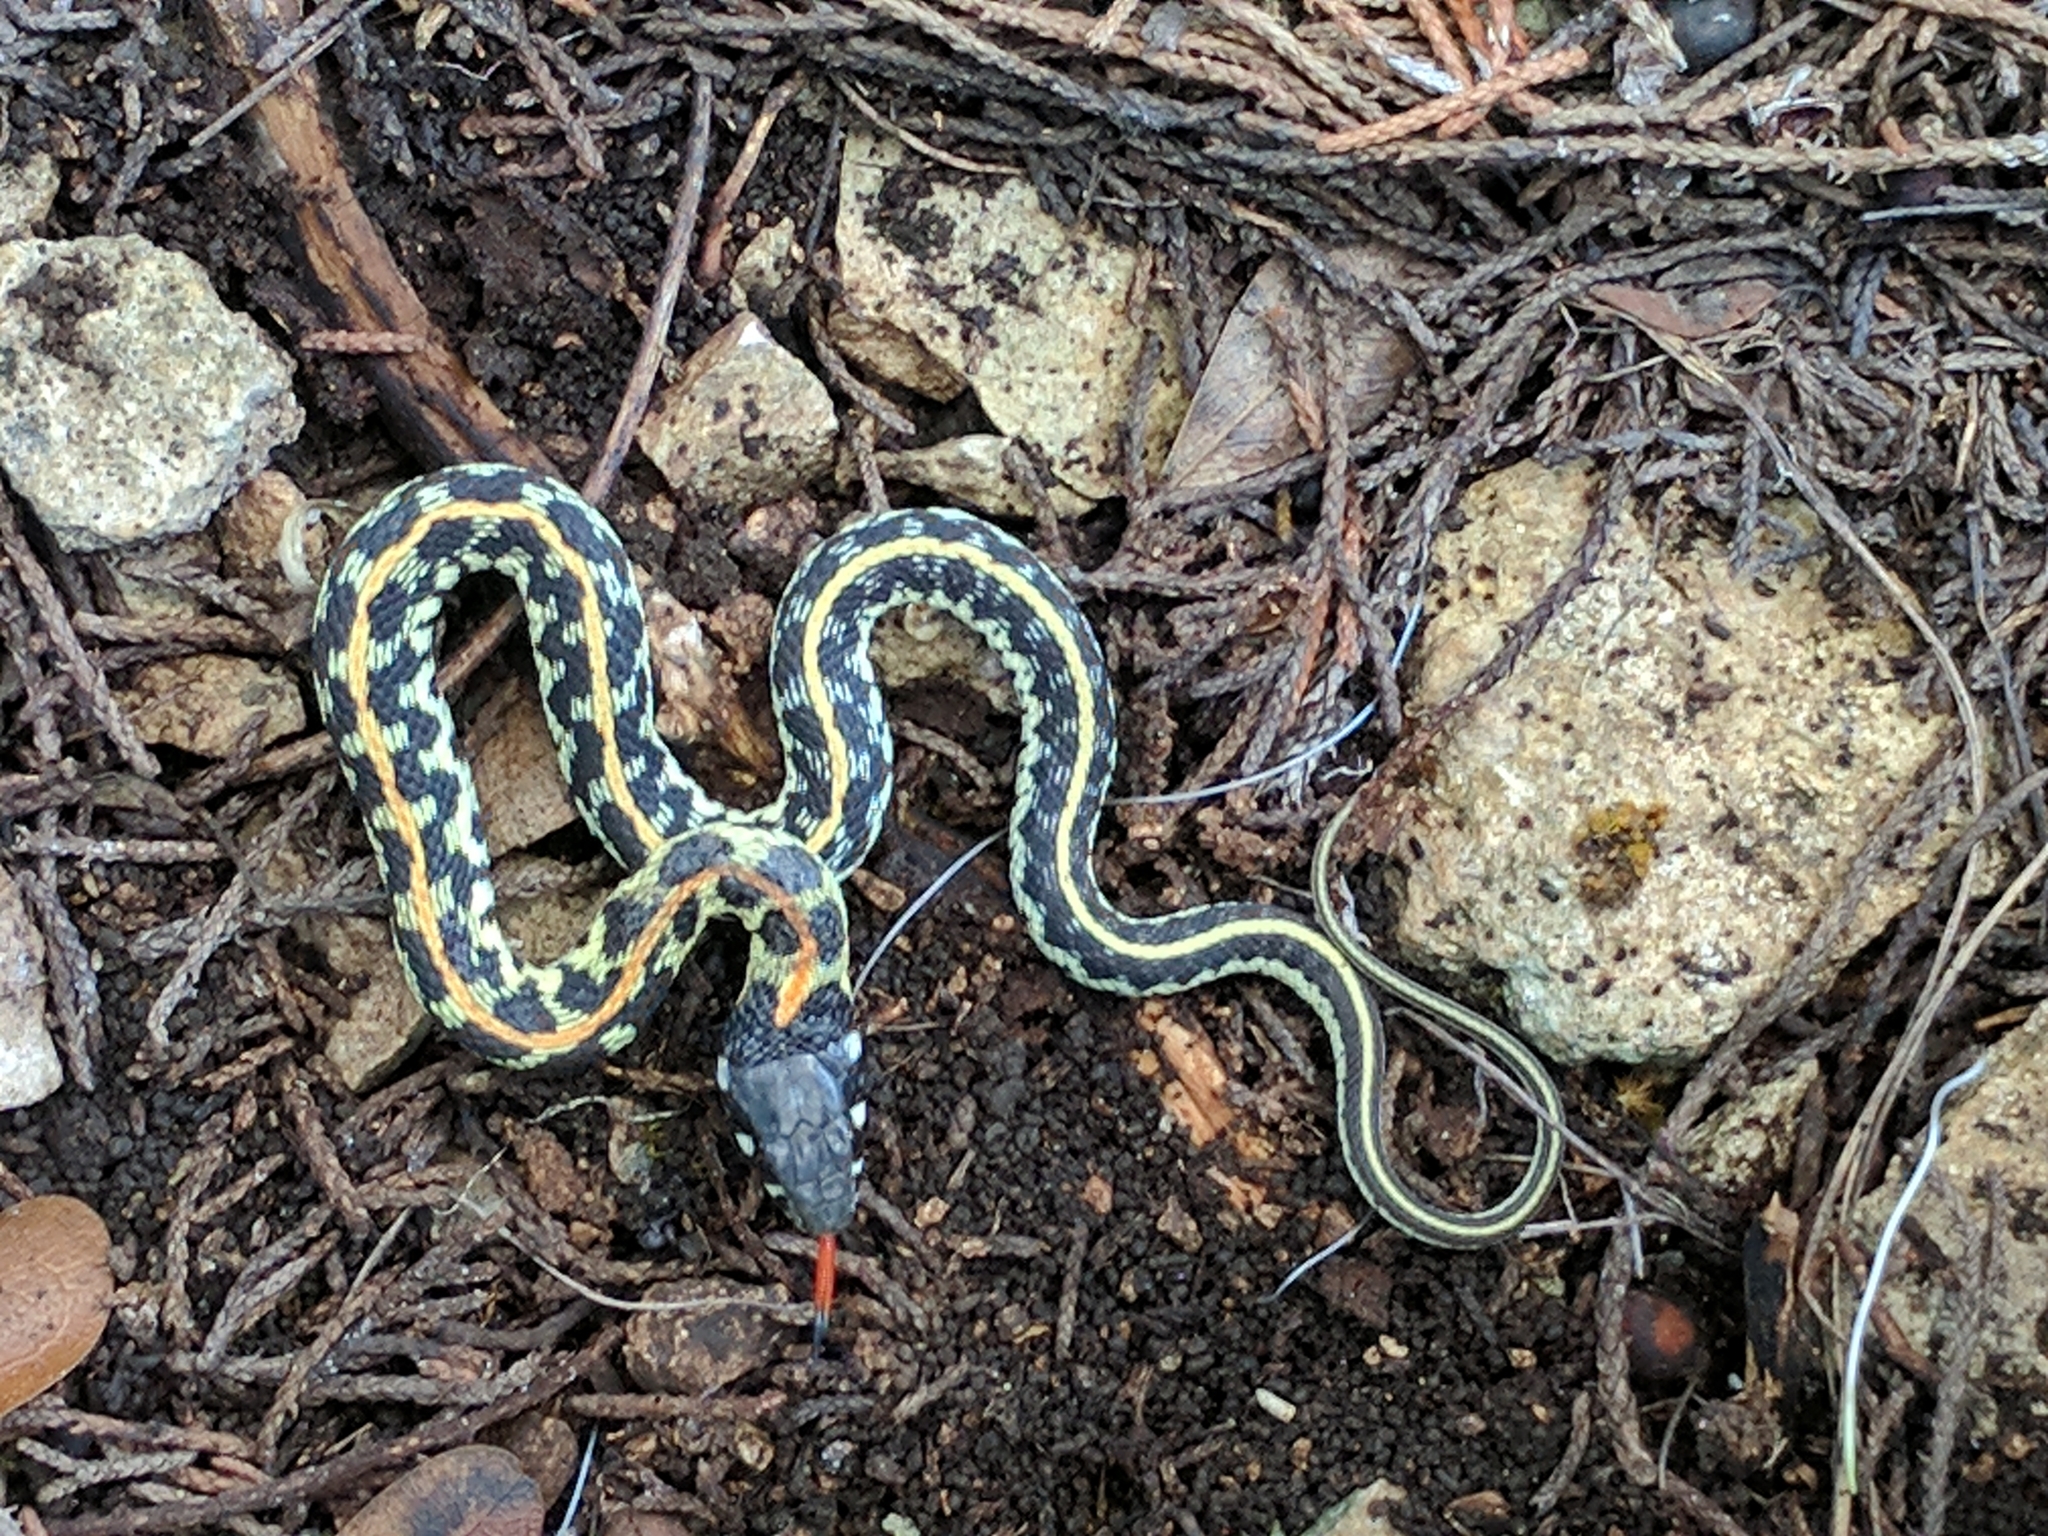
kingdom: Animalia
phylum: Chordata
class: Squamata
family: Colubridae
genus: Thamnophis
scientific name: Thamnophis cyrtopsis
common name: Black-necked gartersnake
